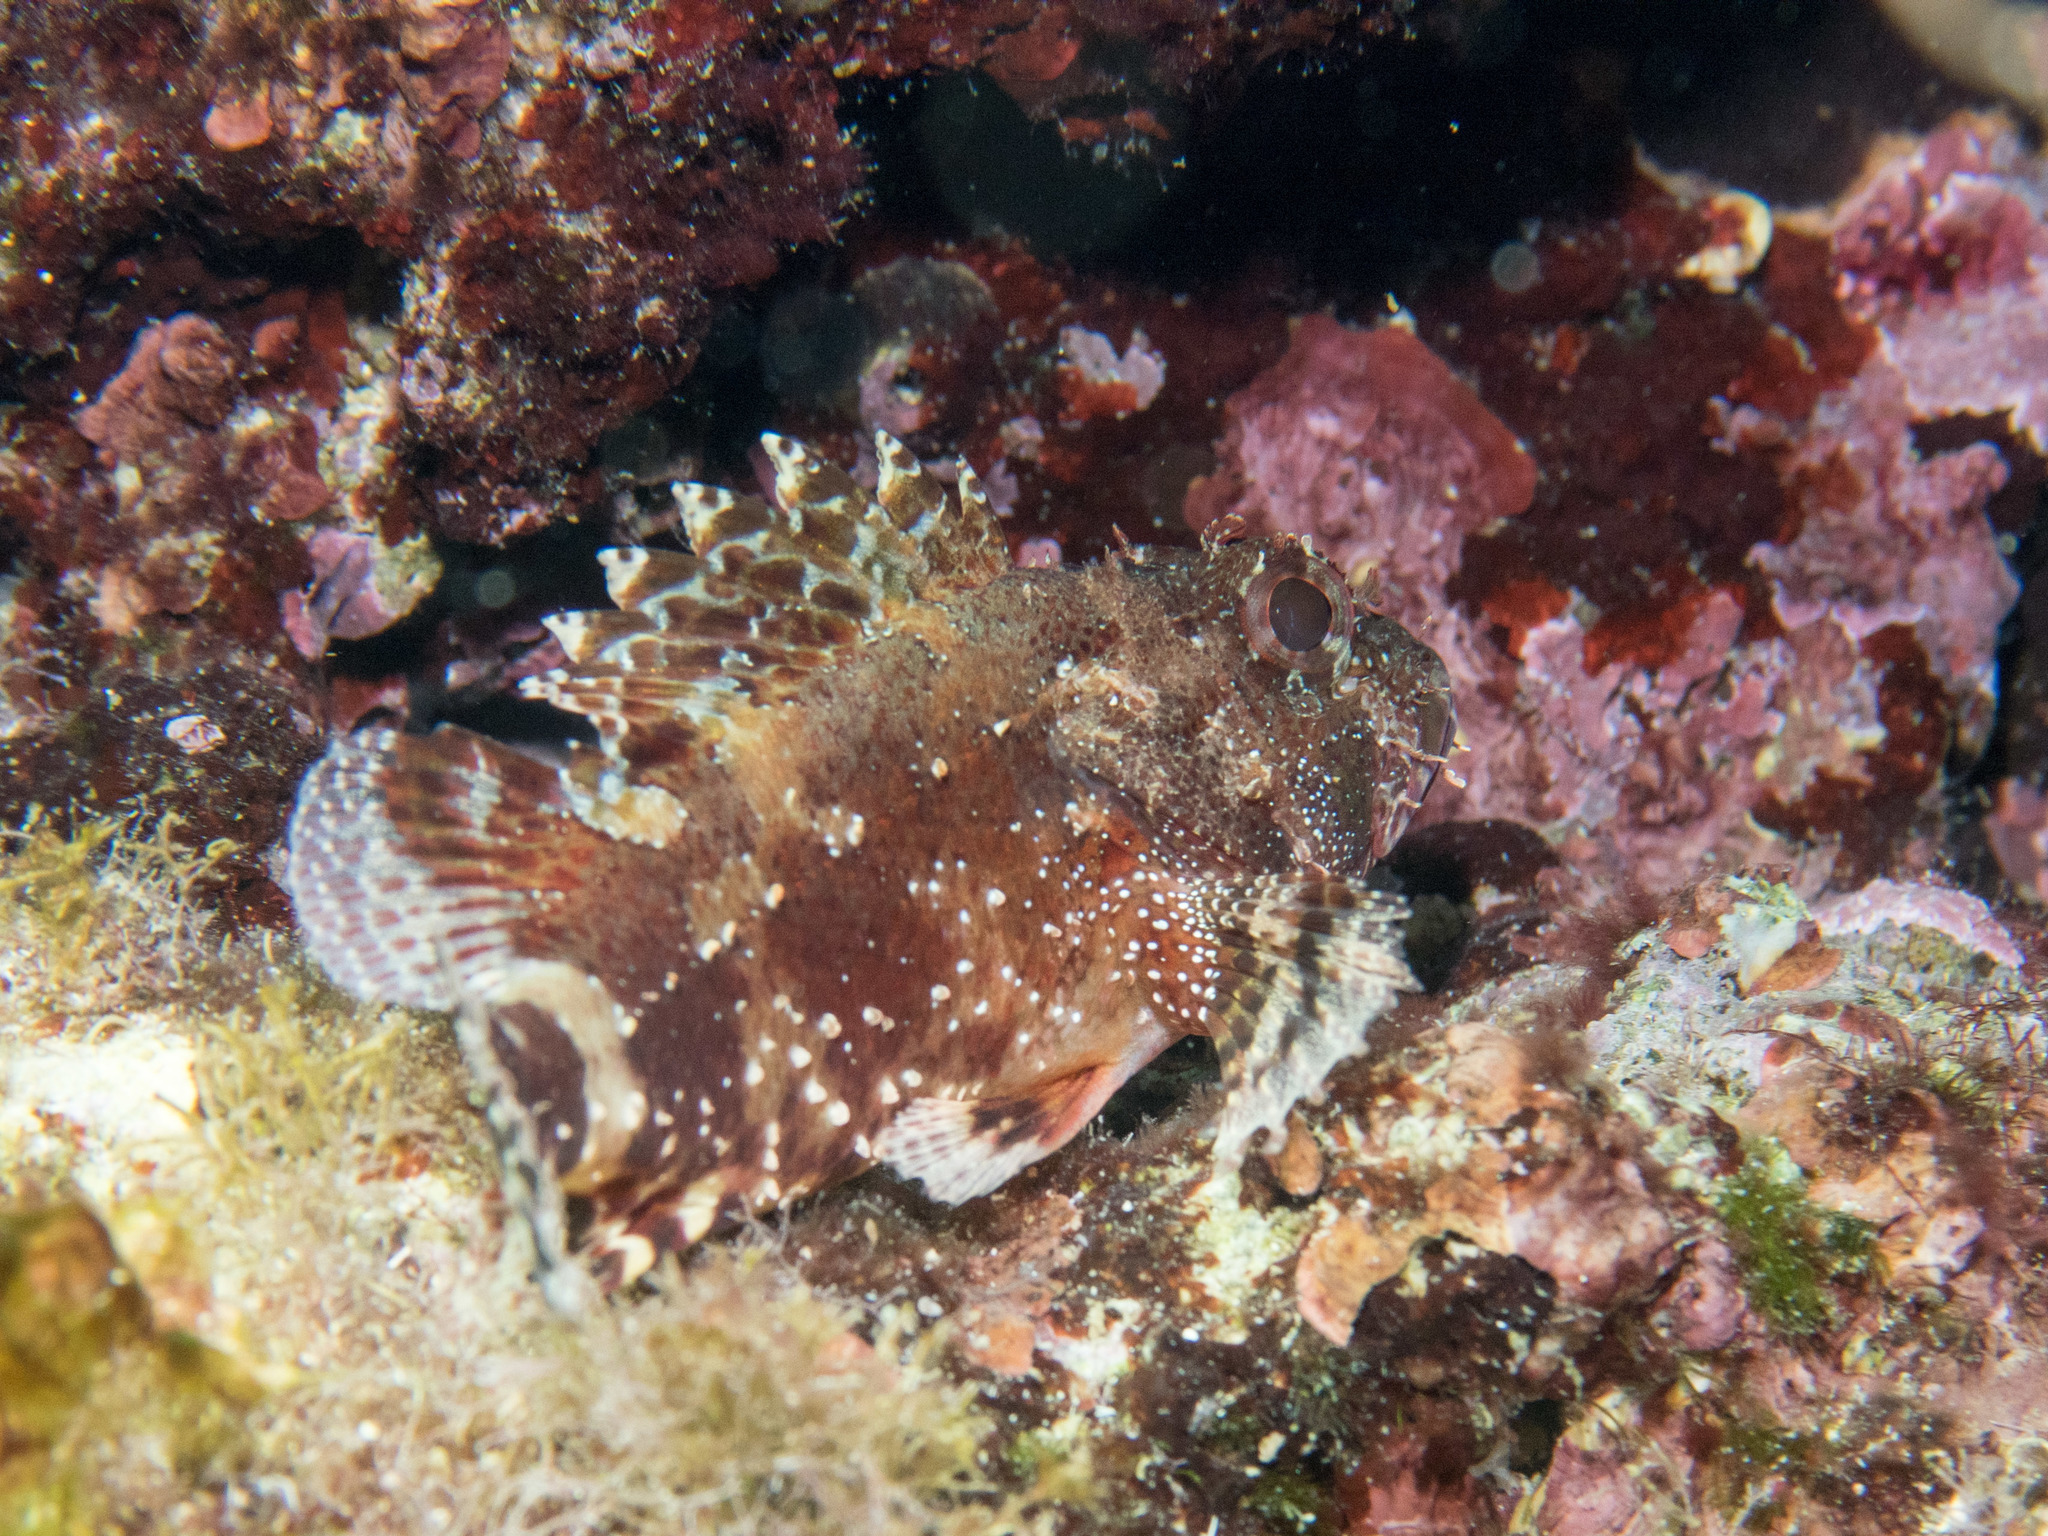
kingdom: Animalia
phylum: Chordata
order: Scorpaeniformes
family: Scorpaenidae
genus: Scorpaena
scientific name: Scorpaena maderensis
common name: Madeira rockfish
